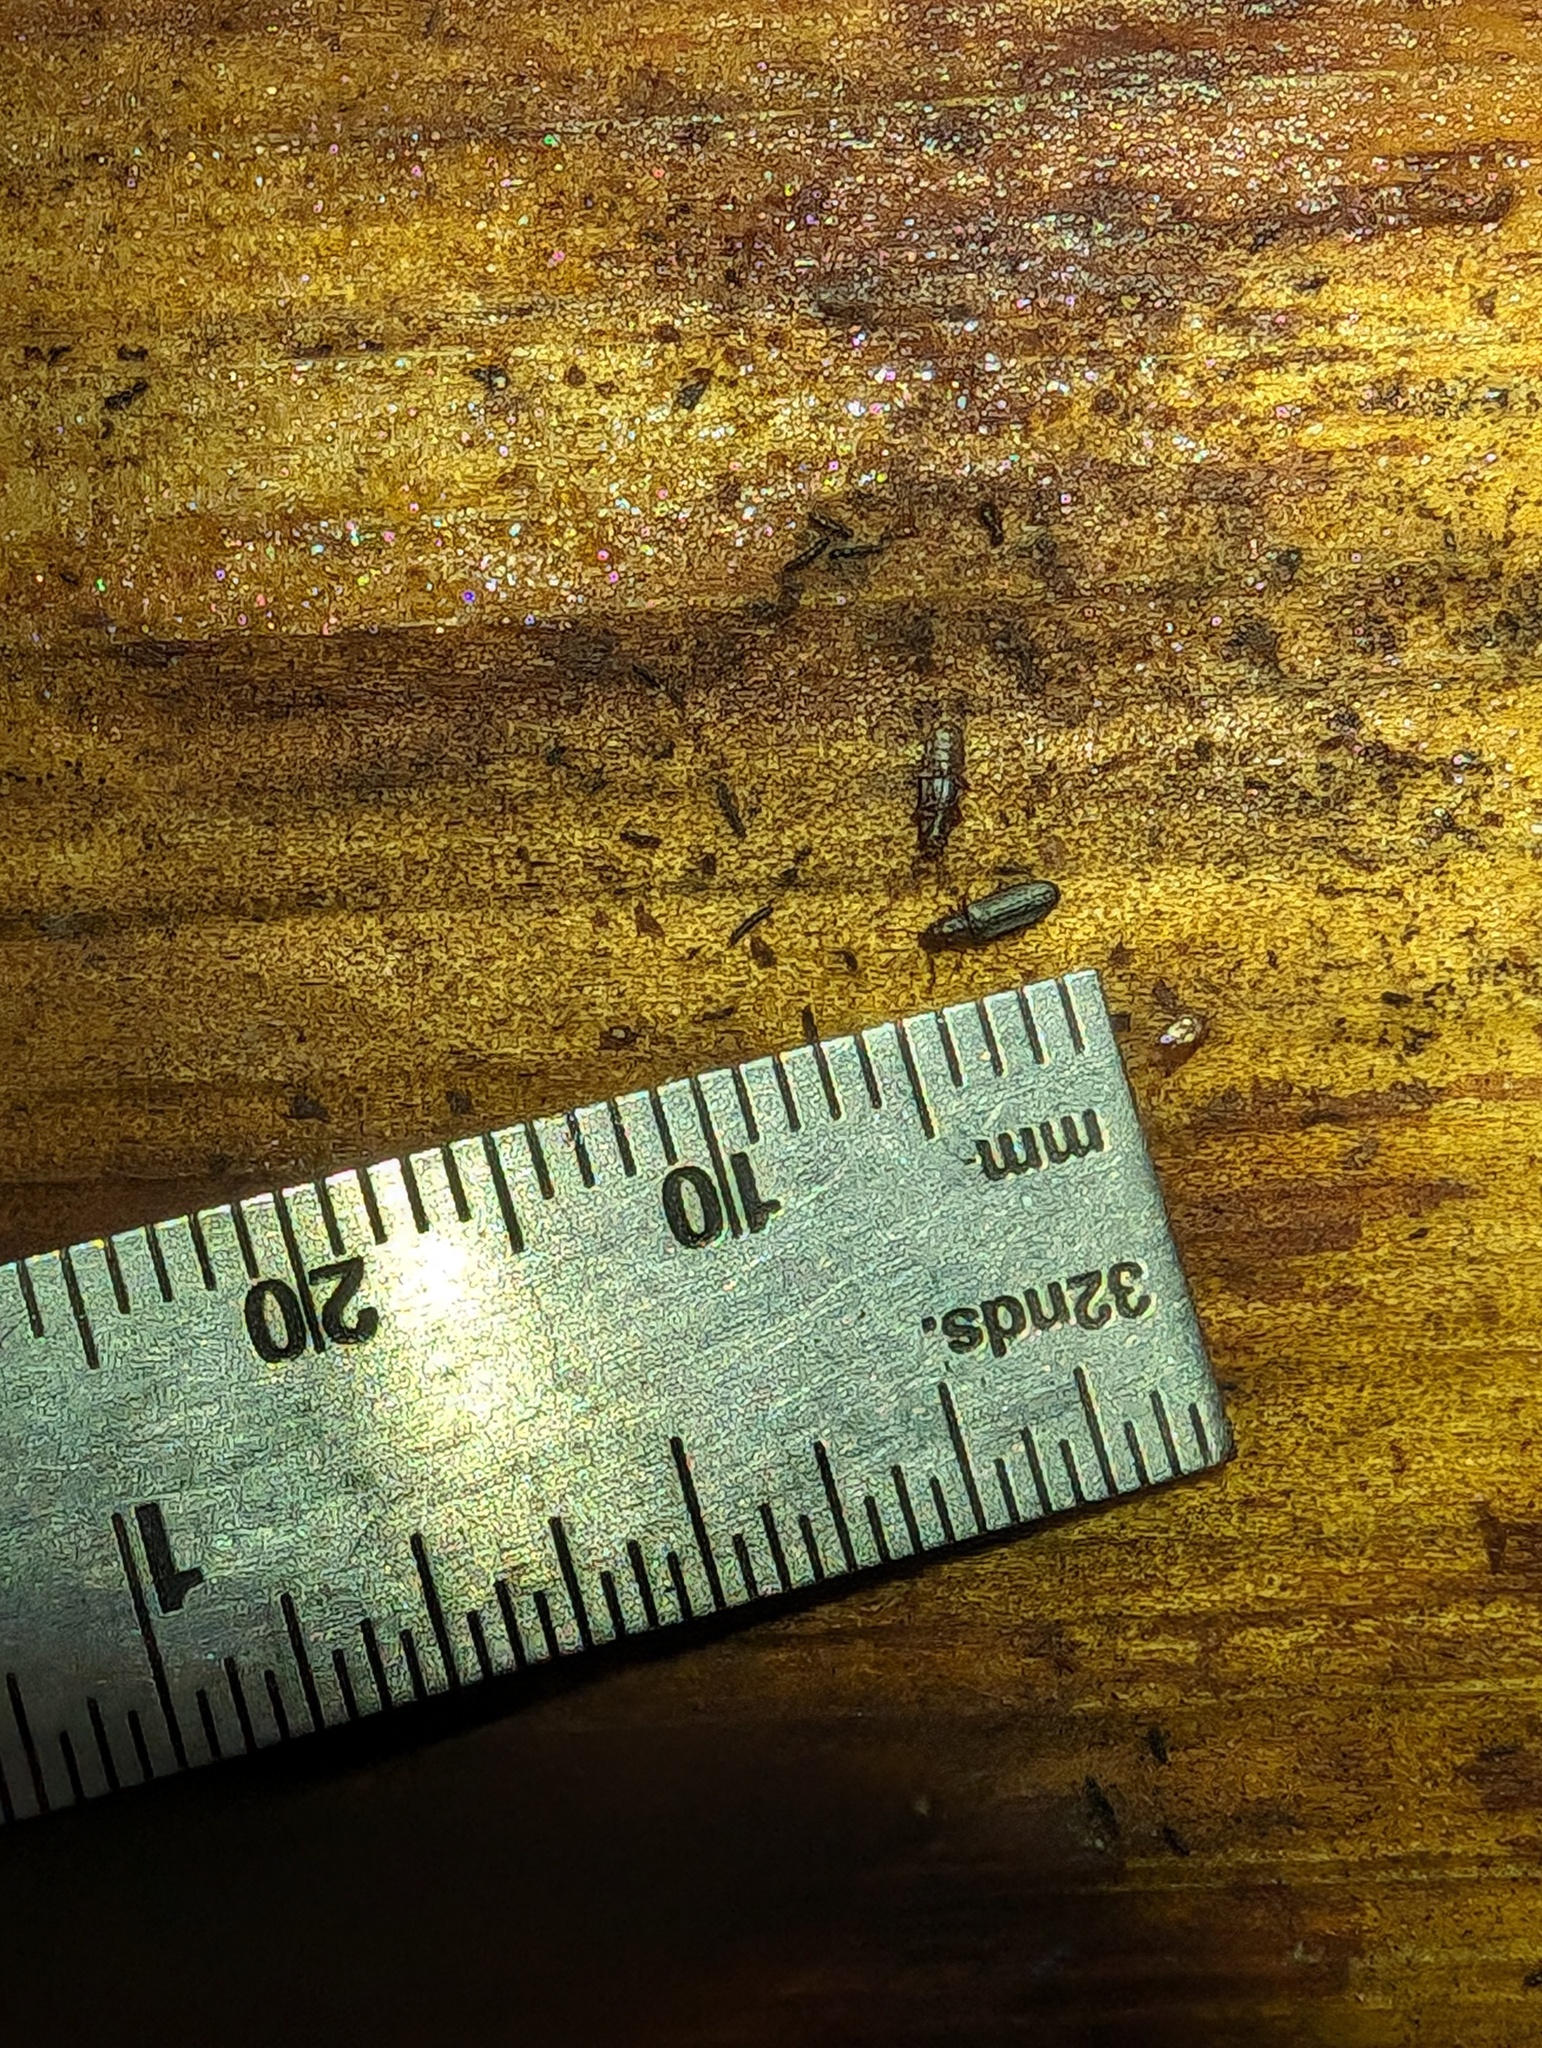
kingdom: Animalia
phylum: Arthropoda
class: Insecta
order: Coleoptera
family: Cucujidae
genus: Pediacus
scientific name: Pediacus gracilis
